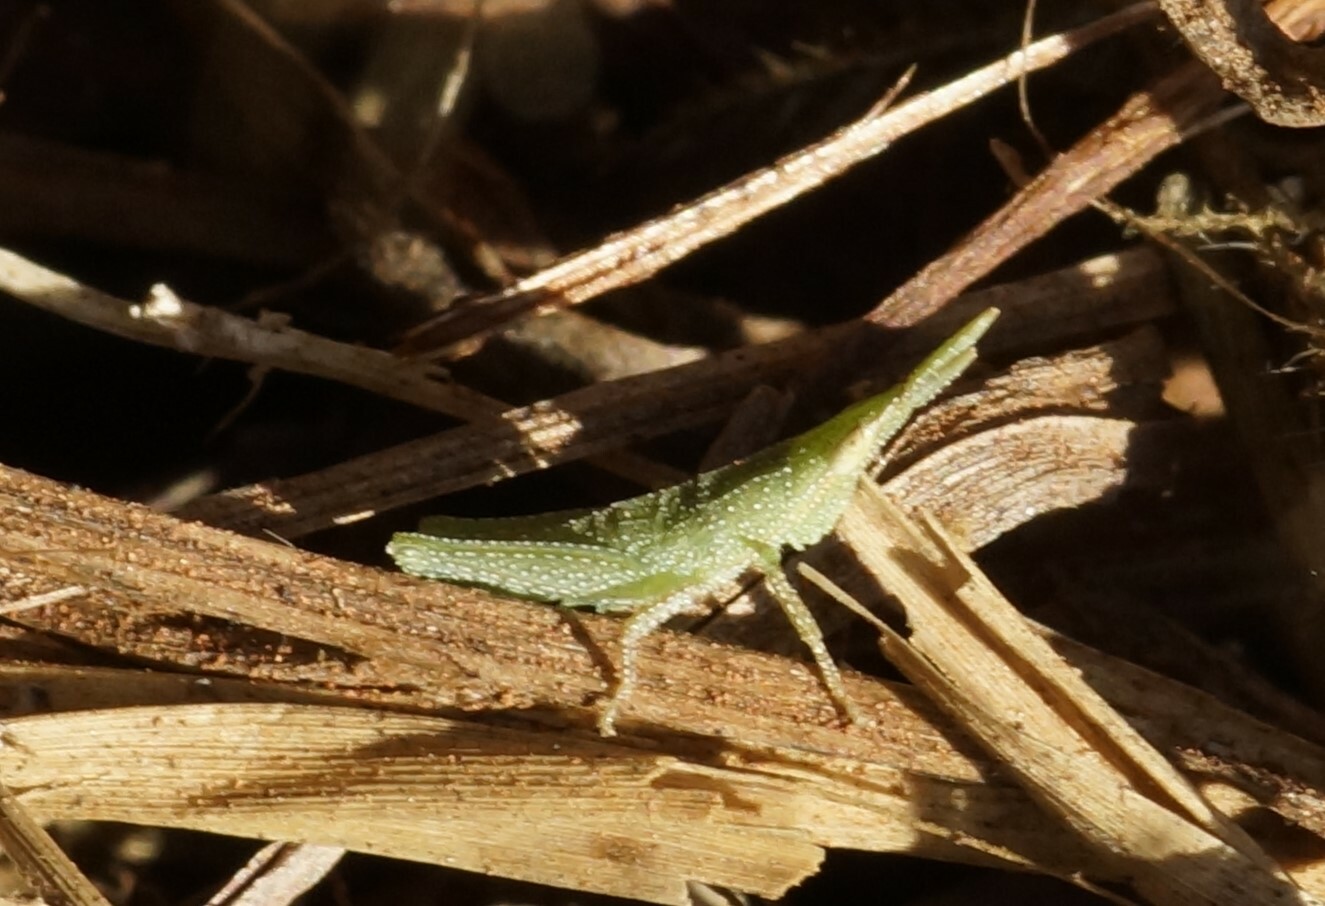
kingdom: Animalia
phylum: Arthropoda
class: Insecta
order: Orthoptera
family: Pyrgomorphidae
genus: Atractomorpha
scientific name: Atractomorpha similis
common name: Northern grass pyrgomorph
